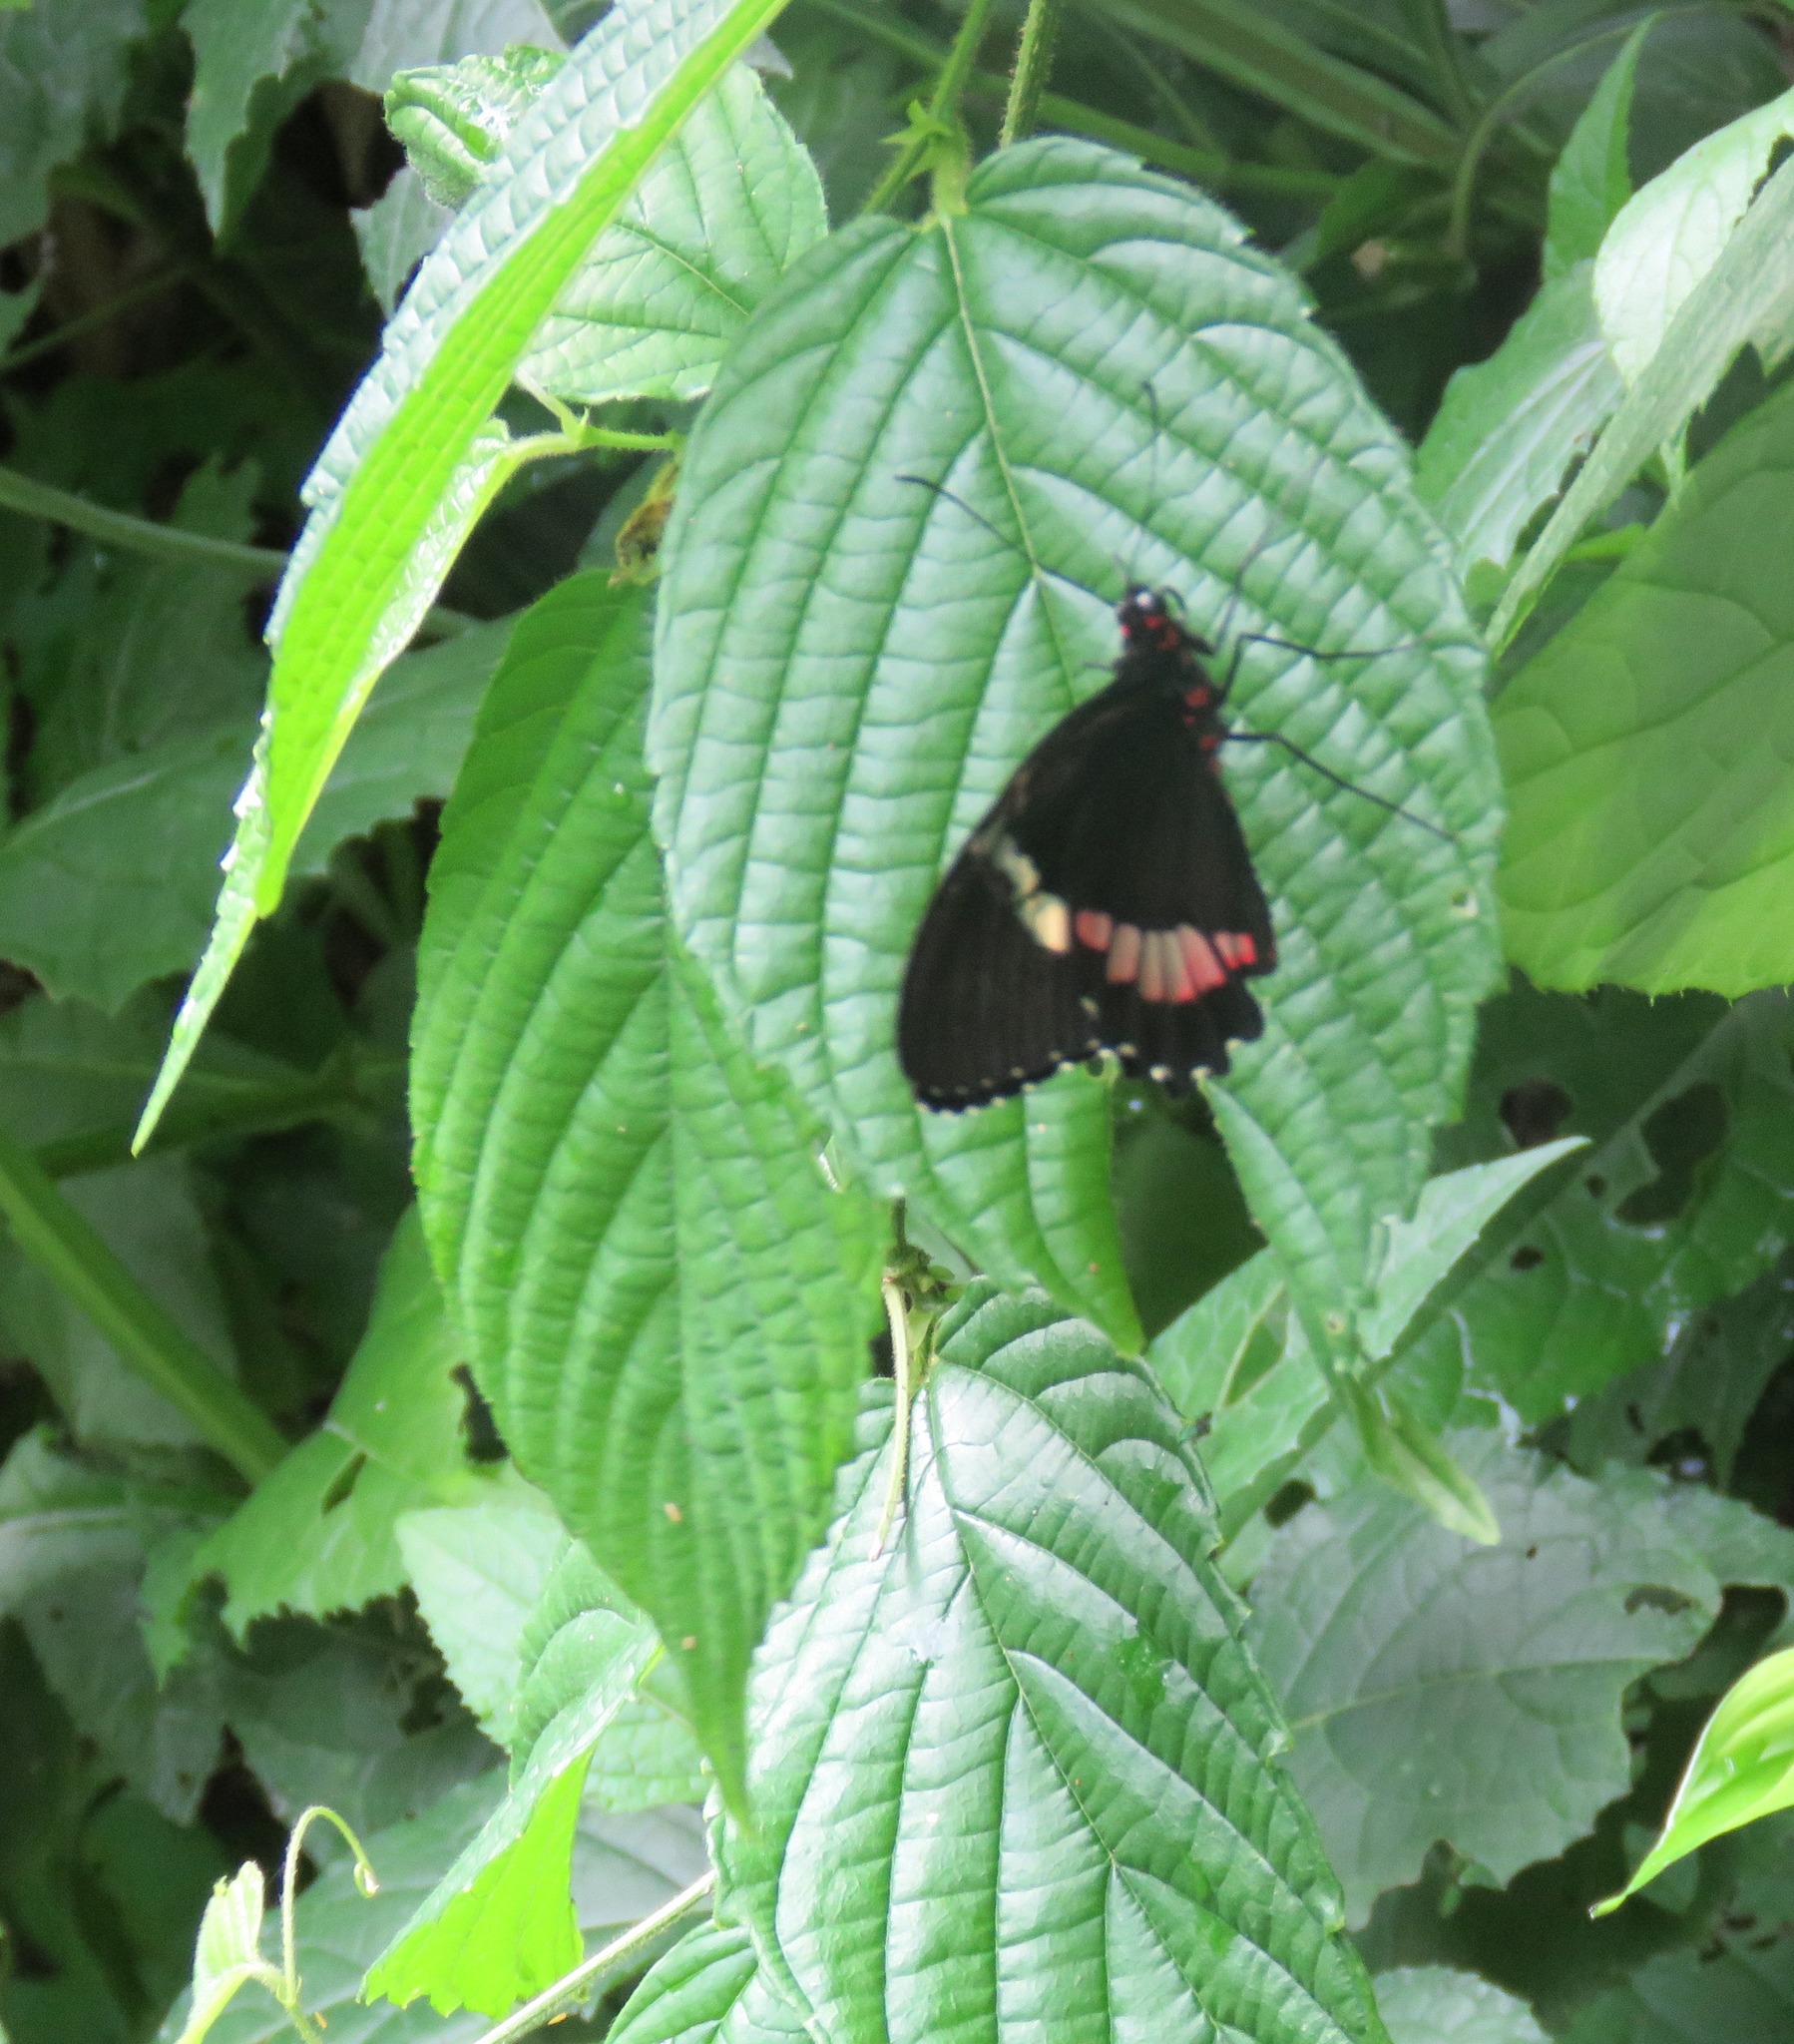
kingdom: Animalia
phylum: Arthropoda
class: Insecta
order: Lepidoptera
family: Papilionidae
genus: Parides
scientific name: Parides iphidamas
